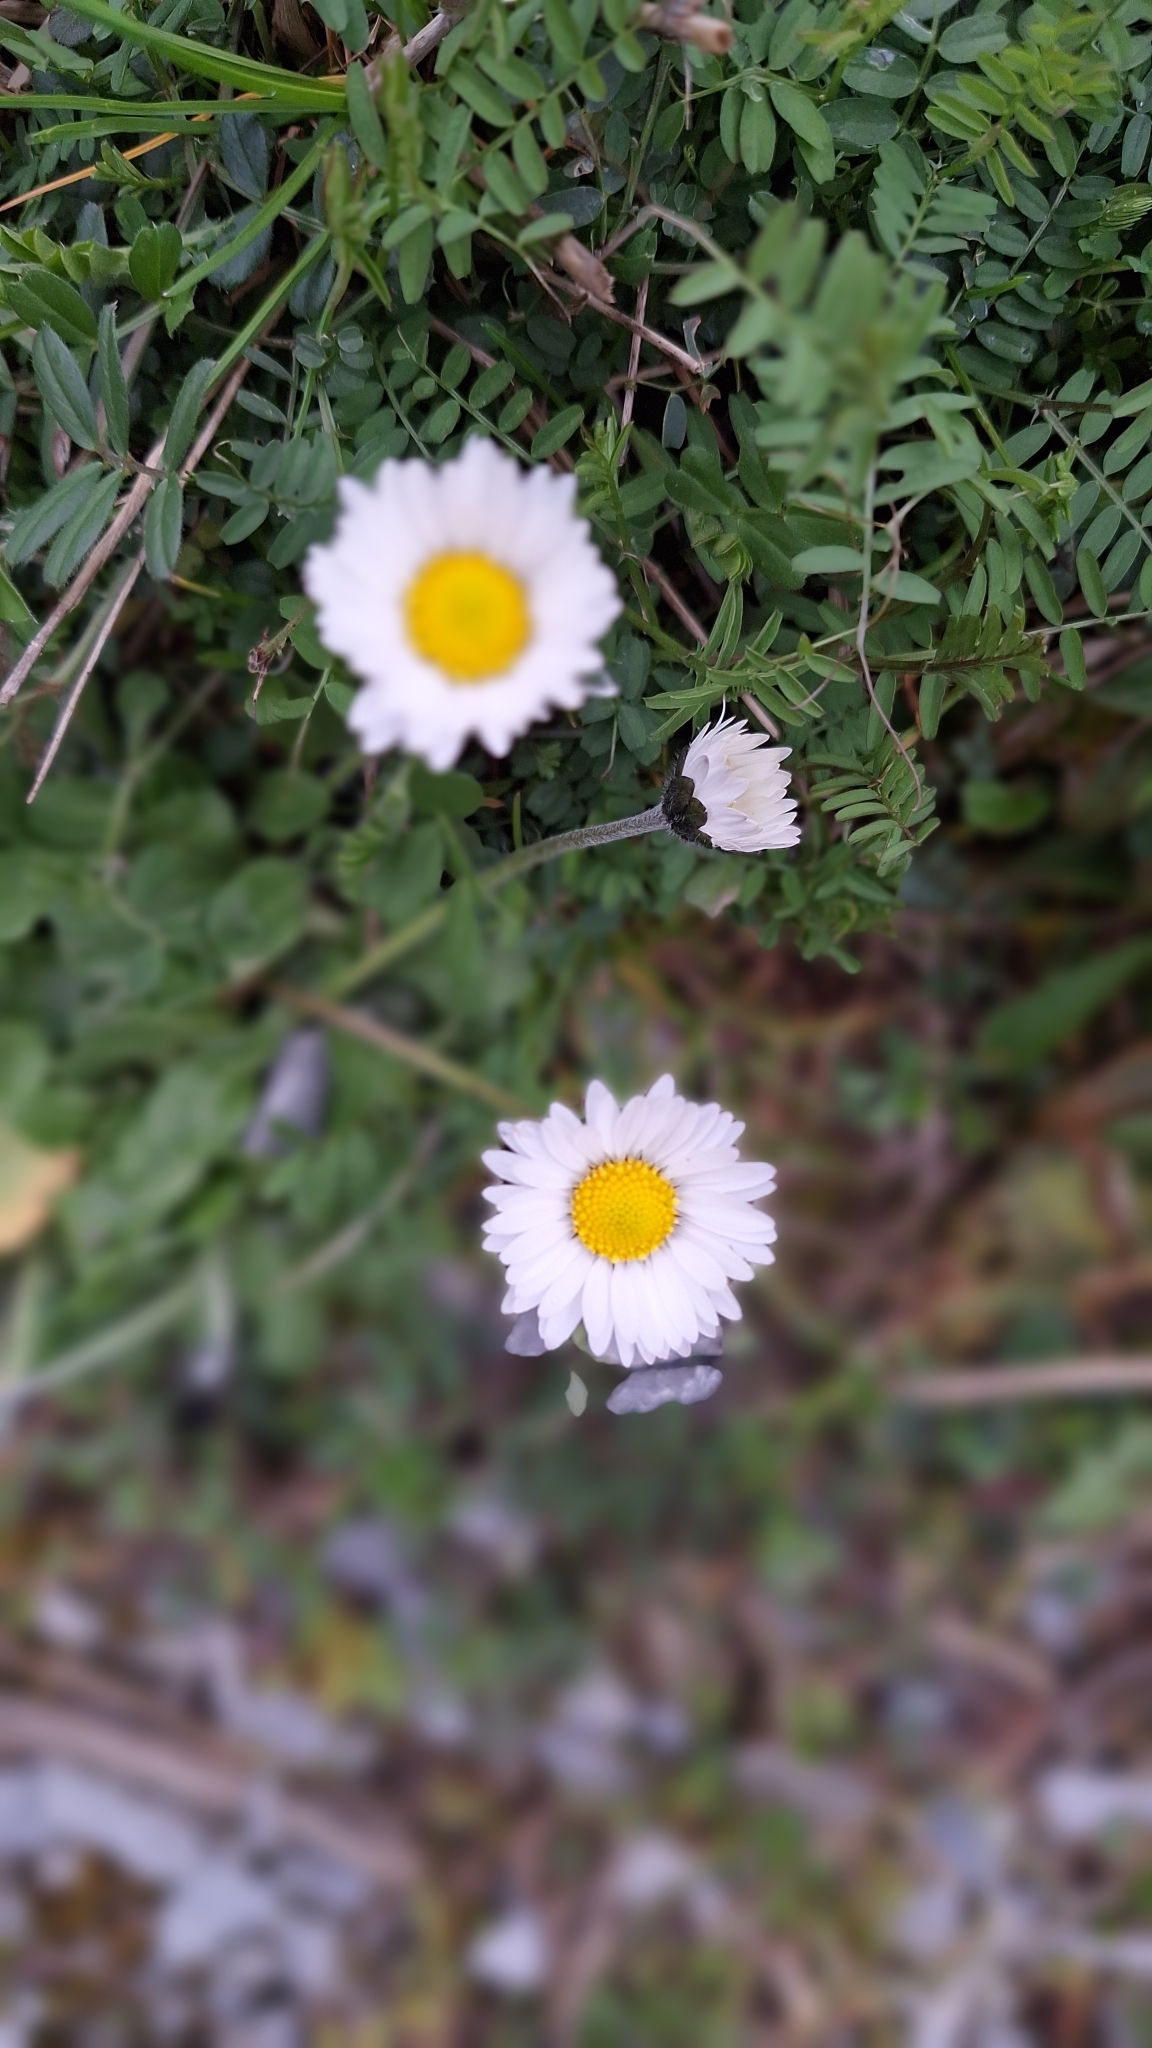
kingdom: Plantae
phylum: Tracheophyta
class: Magnoliopsida
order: Asterales
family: Asteraceae
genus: Bellis
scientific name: Bellis perennis
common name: Lawndaisy
